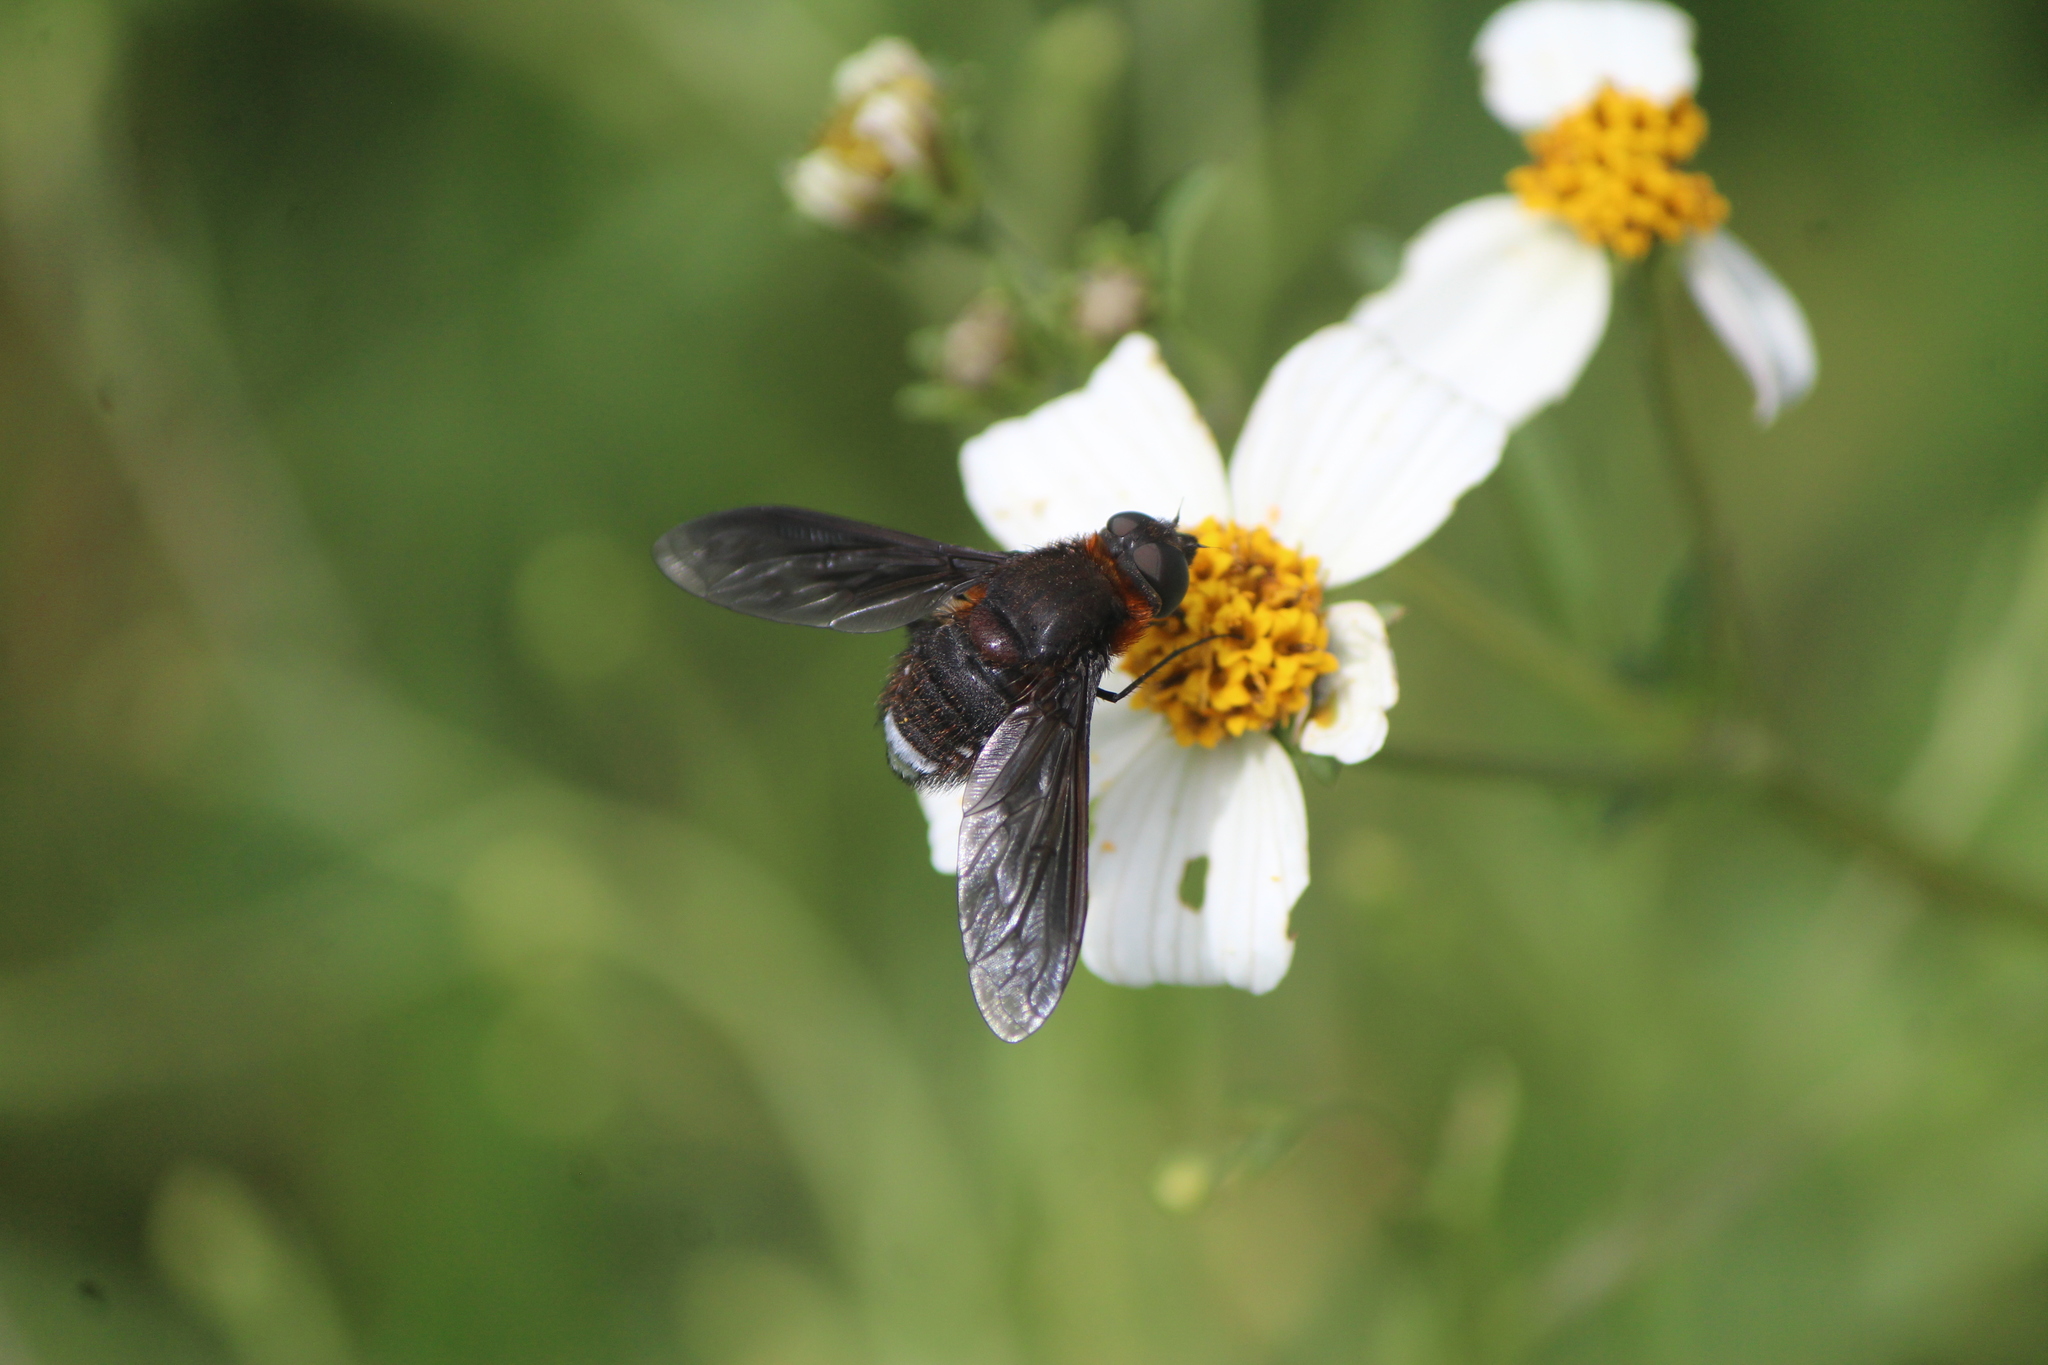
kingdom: Animalia
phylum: Arthropoda
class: Insecta
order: Diptera
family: Bombyliidae
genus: Nyia
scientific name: Nyia orcus
